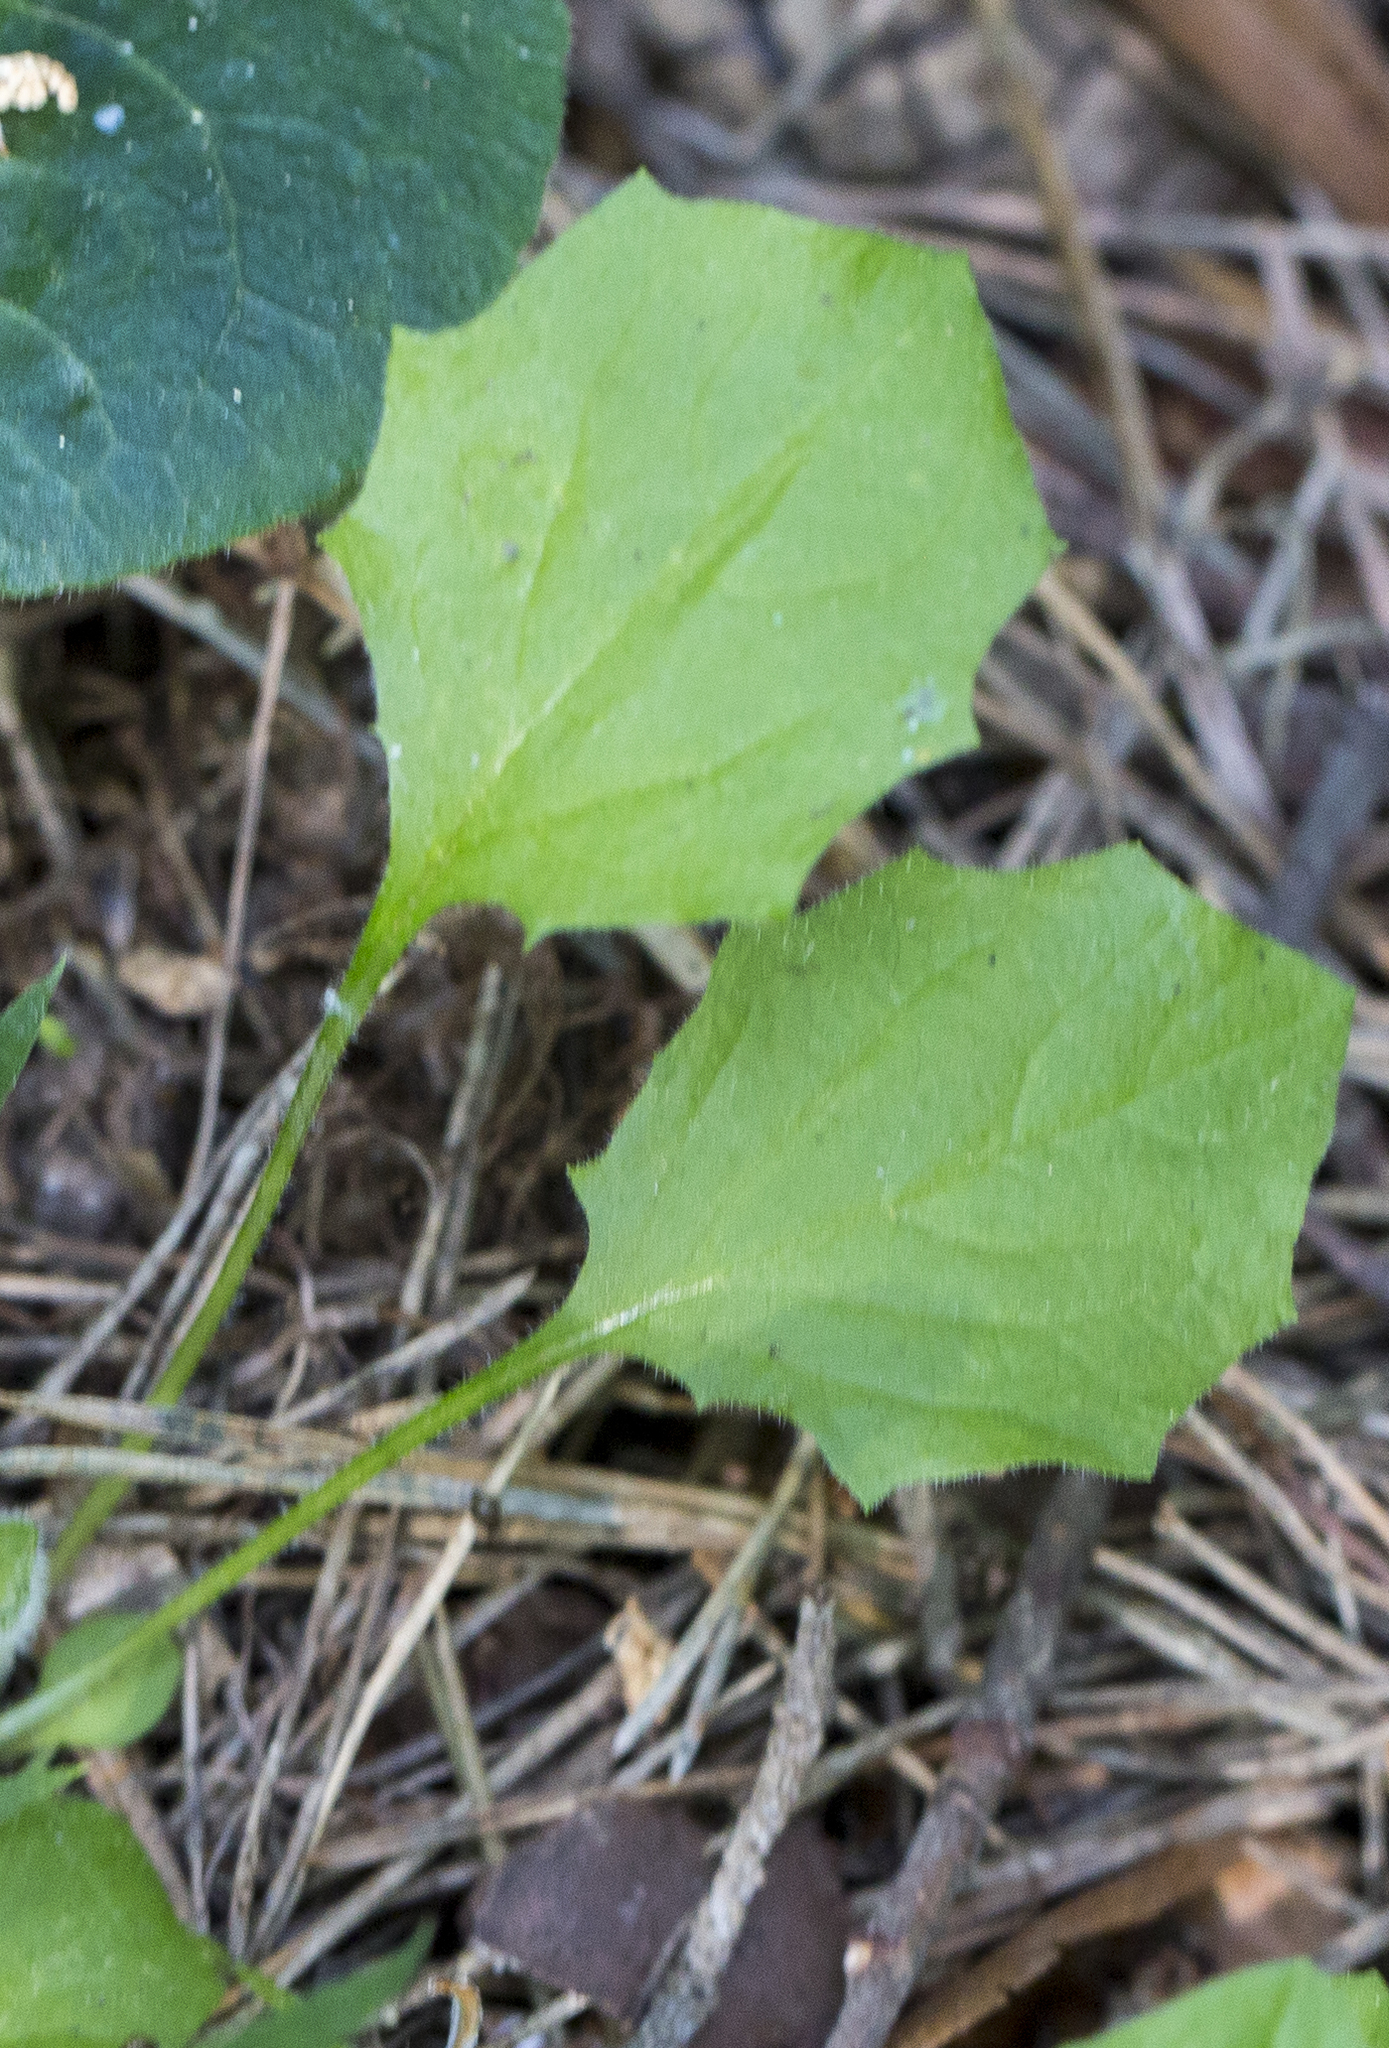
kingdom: Plantae
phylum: Tracheophyta
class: Magnoliopsida
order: Asterales
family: Asteraceae
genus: Lapsana
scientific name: Lapsana communis
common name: Nipplewort
